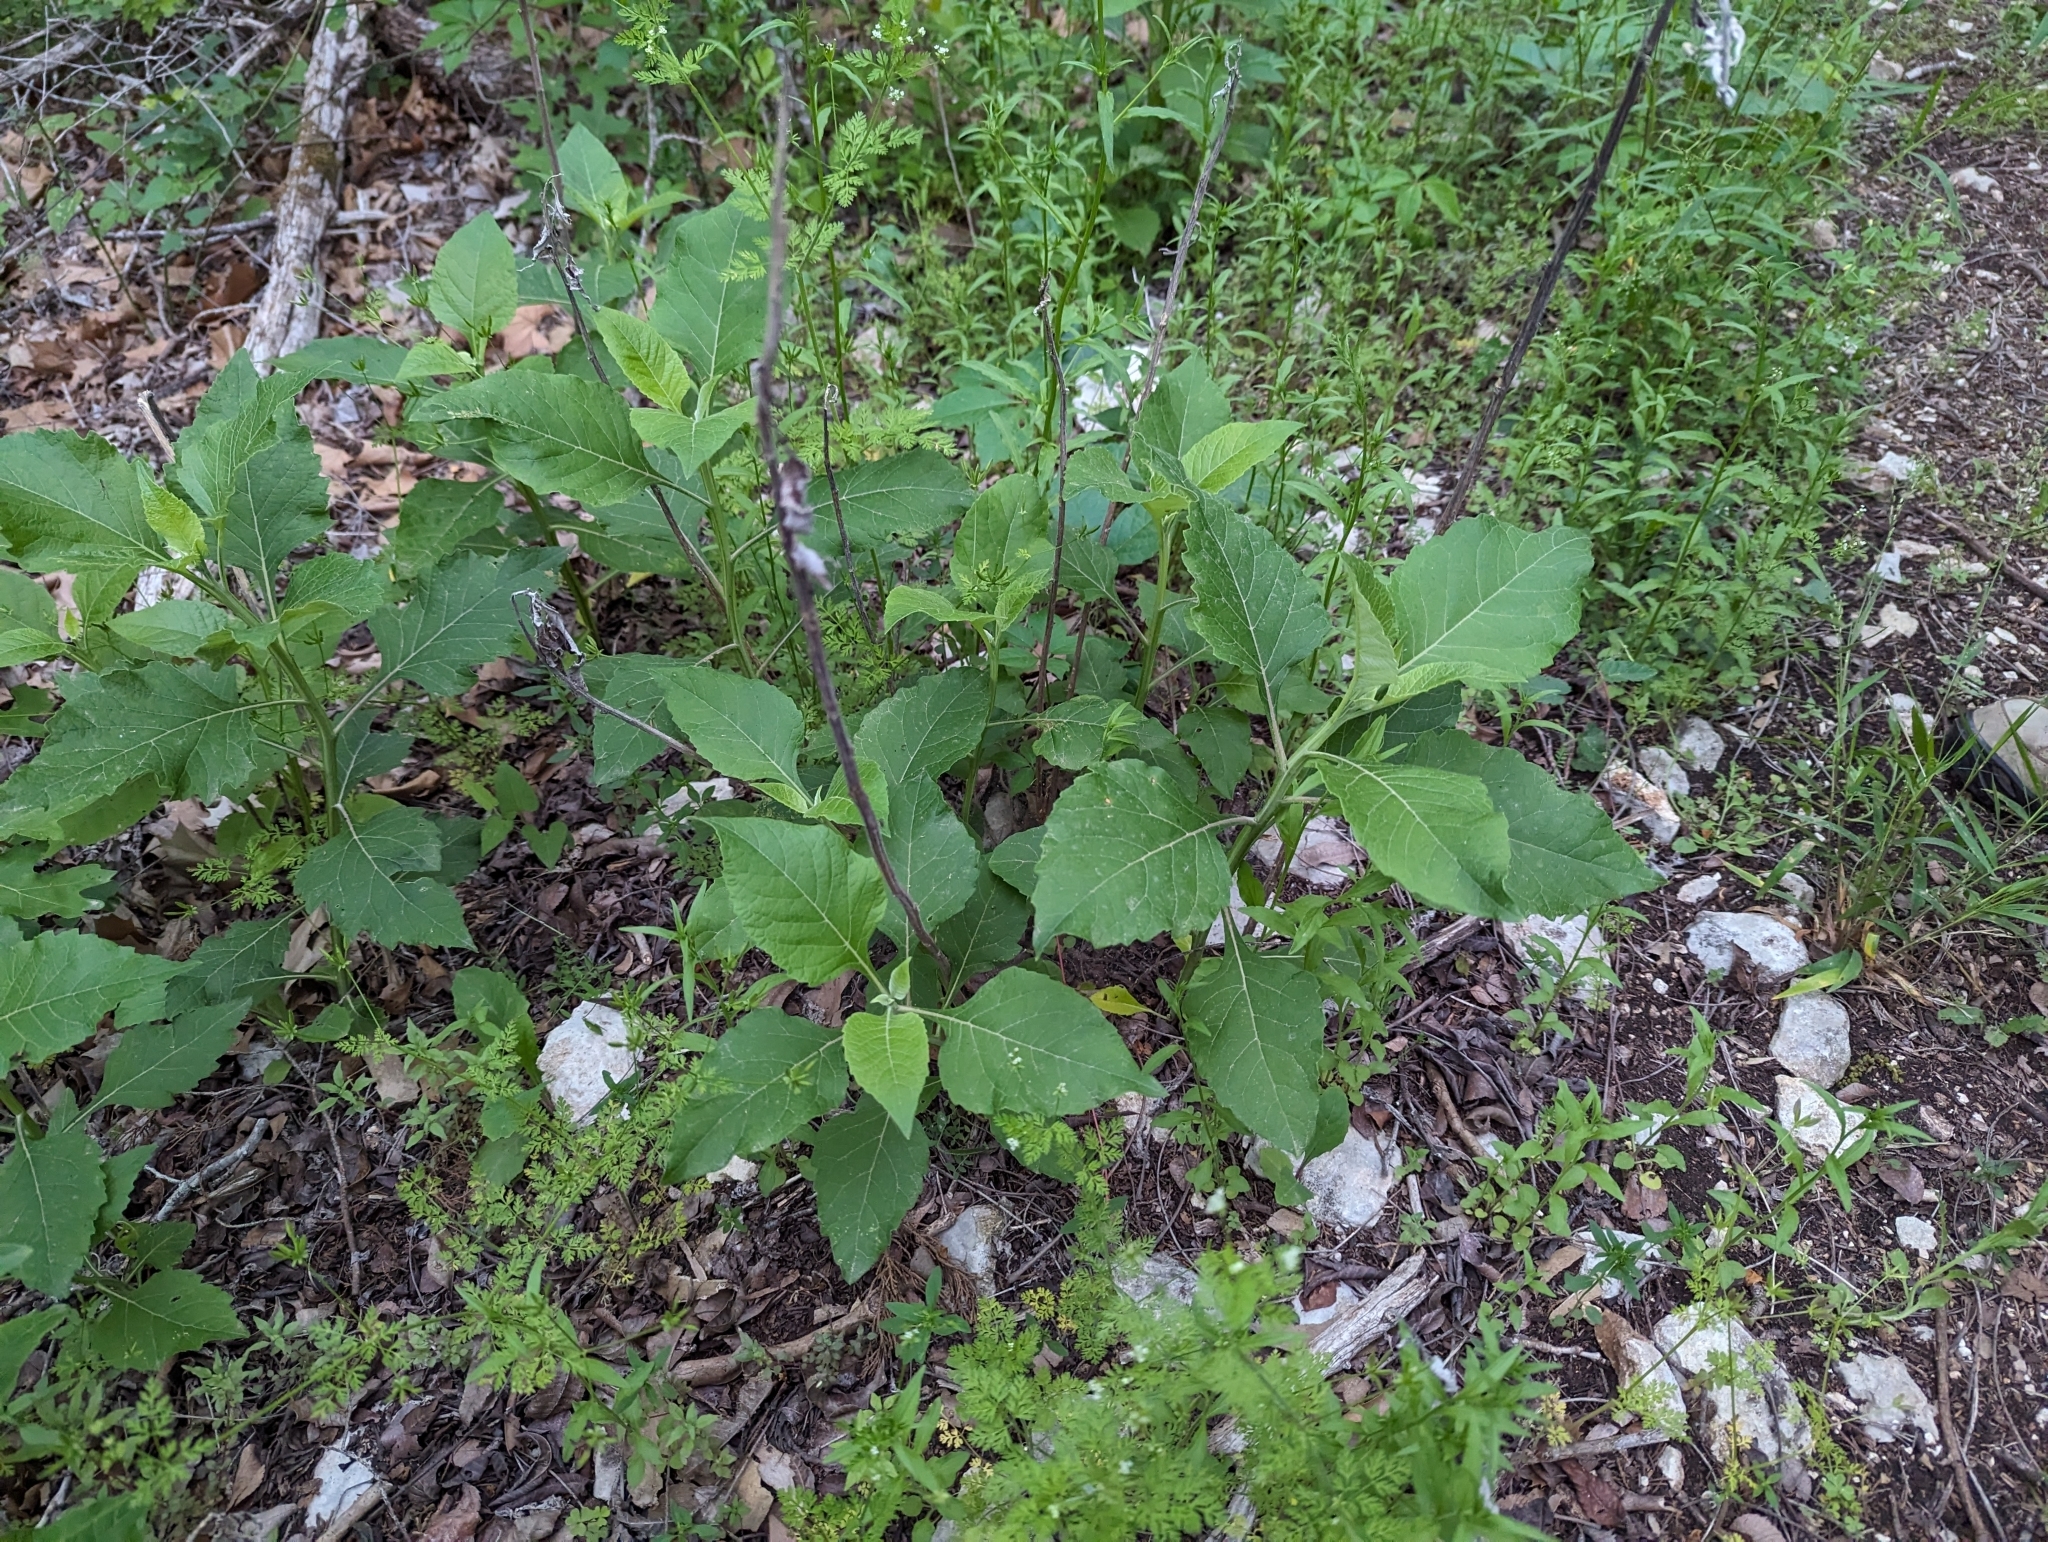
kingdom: Plantae
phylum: Tracheophyta
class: Magnoliopsida
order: Asterales
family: Asteraceae
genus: Verbesina
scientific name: Verbesina virginica
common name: Frostweed
